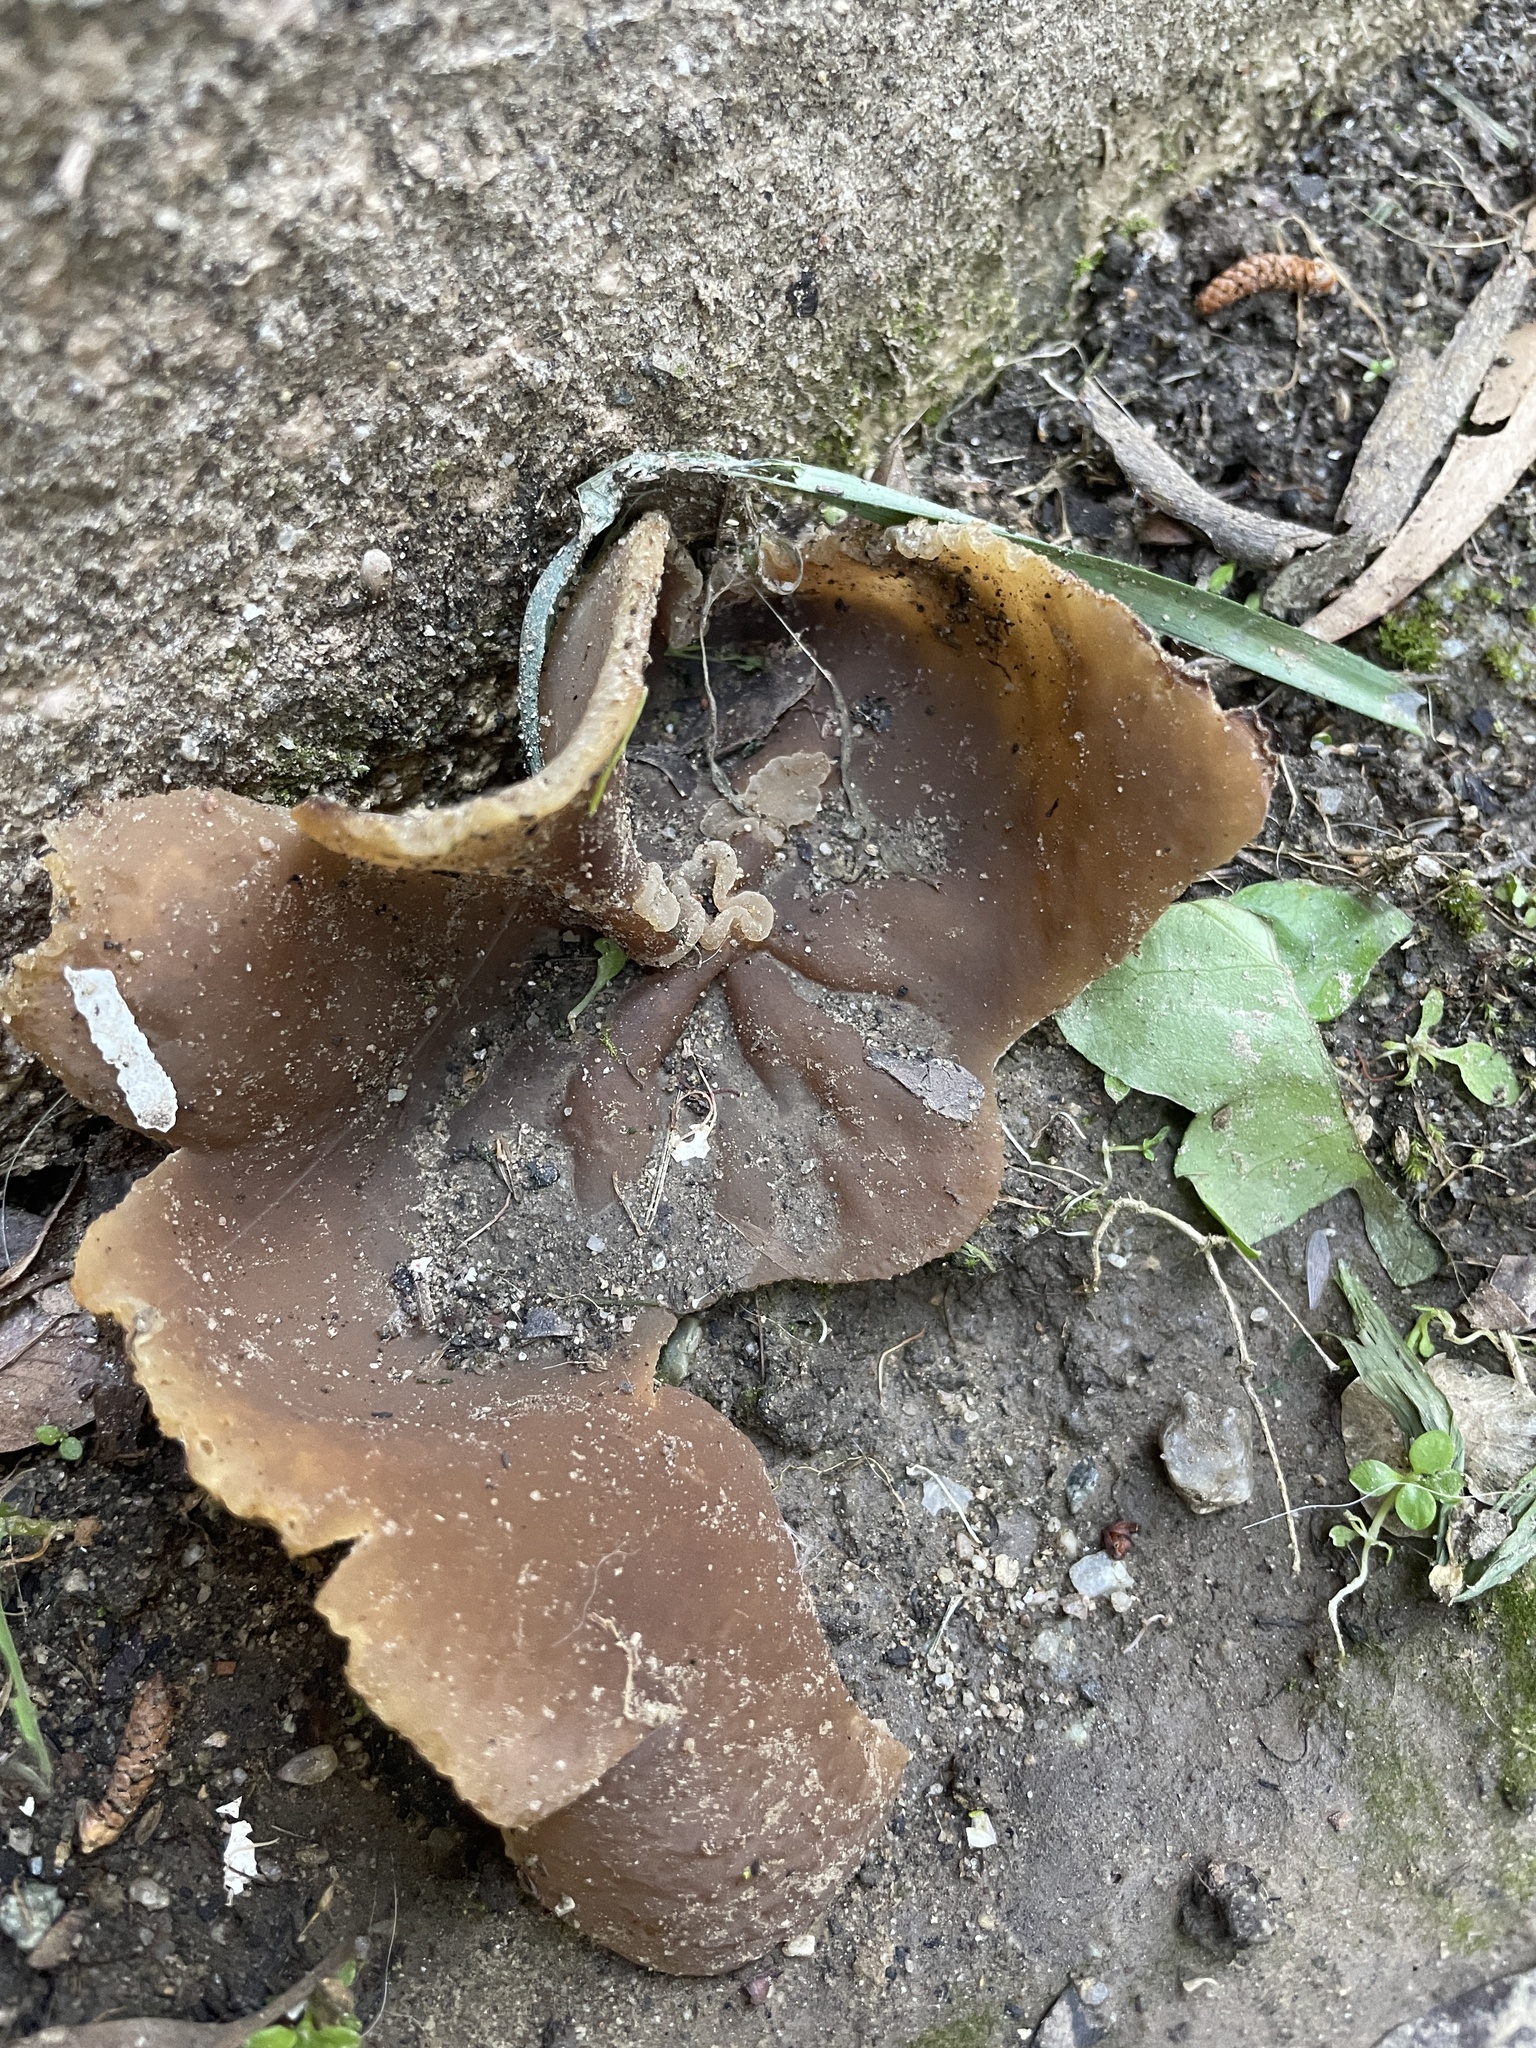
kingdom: Fungi
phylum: Ascomycota
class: Pezizomycetes
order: Pezizales
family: Pezizaceae
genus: Phylloscypha
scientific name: Phylloscypha phyllogena
